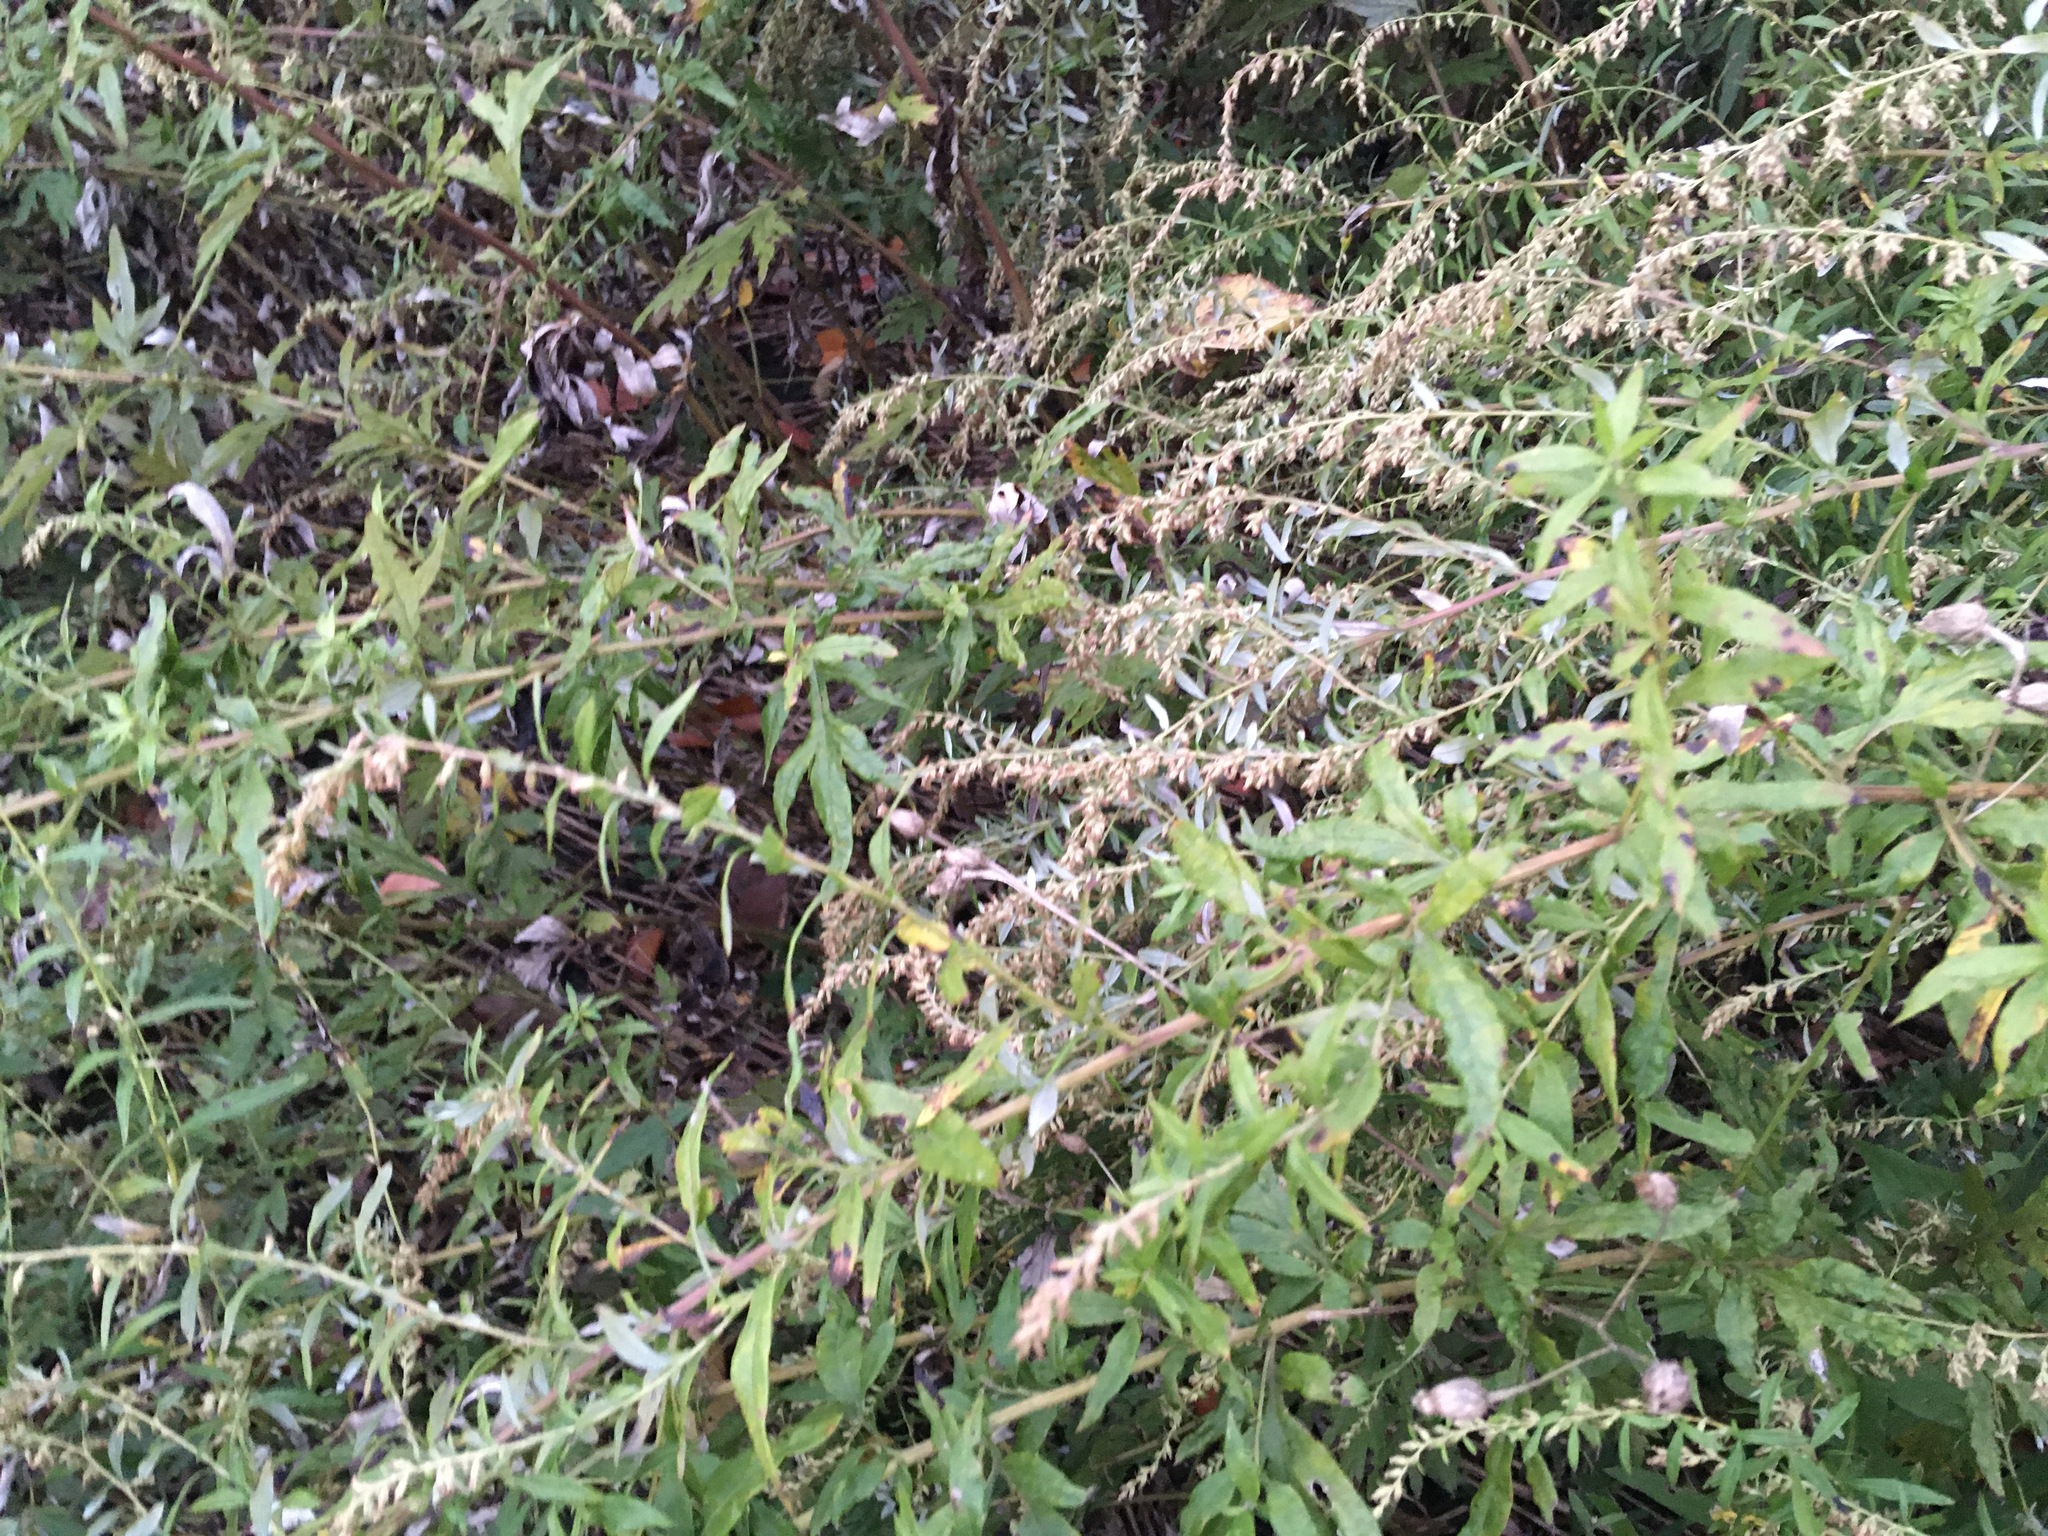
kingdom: Plantae
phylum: Tracheophyta
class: Magnoliopsida
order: Asterales
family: Asteraceae
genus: Artemisia
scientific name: Artemisia vulgaris
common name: Mugwort
